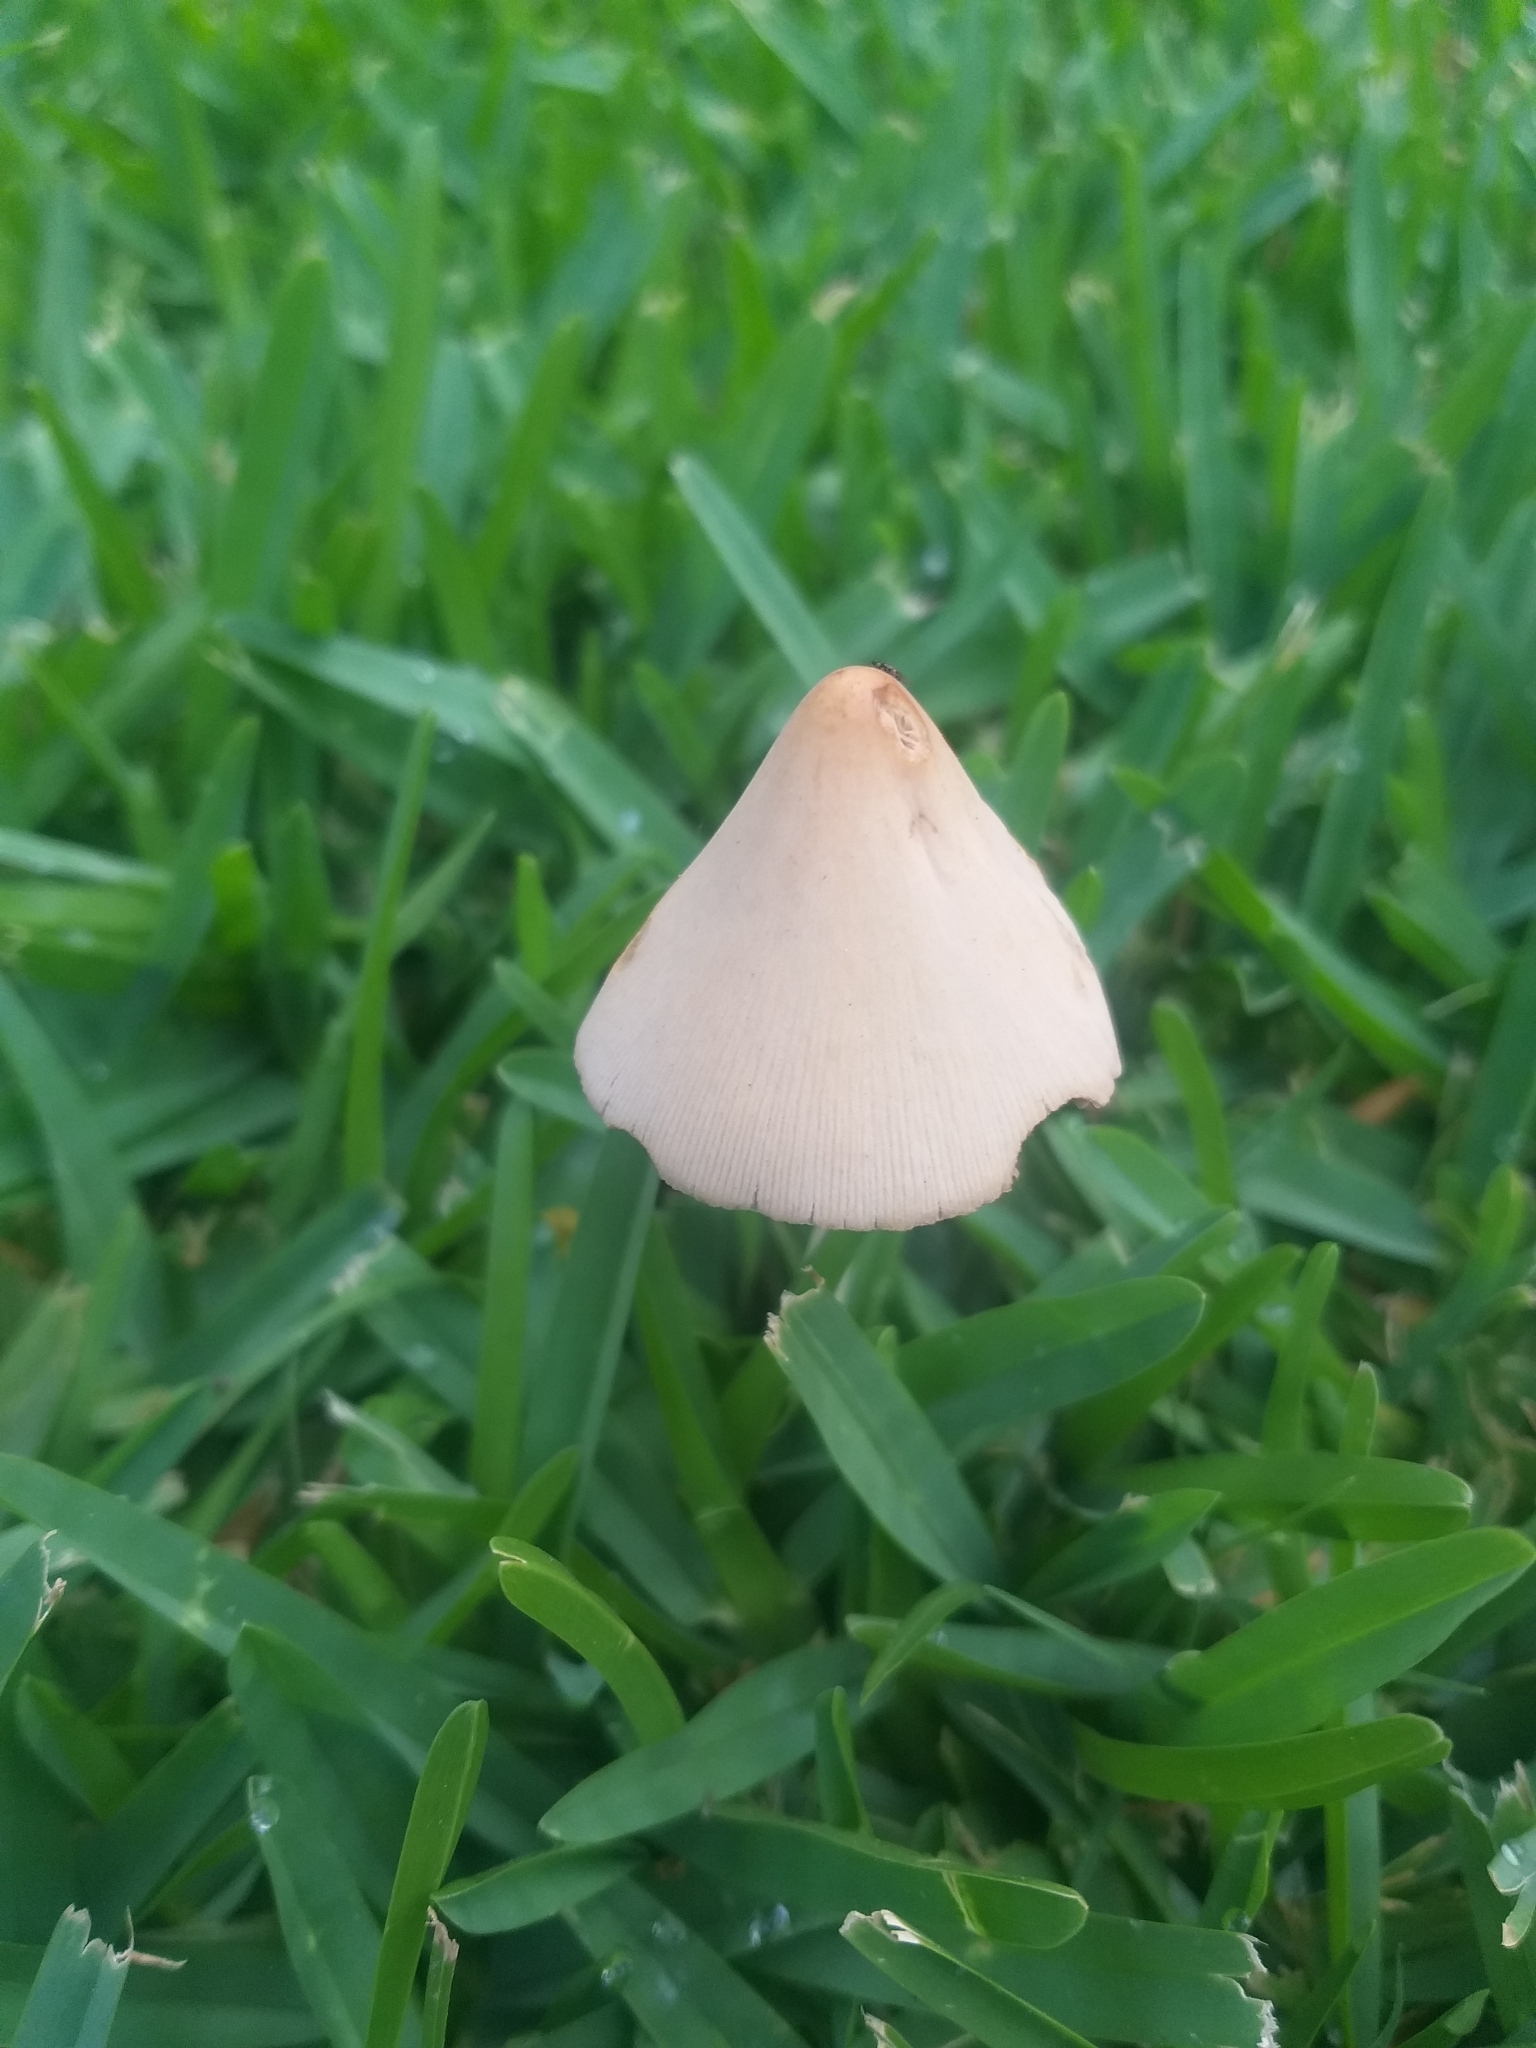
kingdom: Fungi
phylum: Basidiomycota
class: Agaricomycetes
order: Agaricales
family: Bolbitiaceae
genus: Conocybe
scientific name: Conocybe apala
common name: Milky conecap
